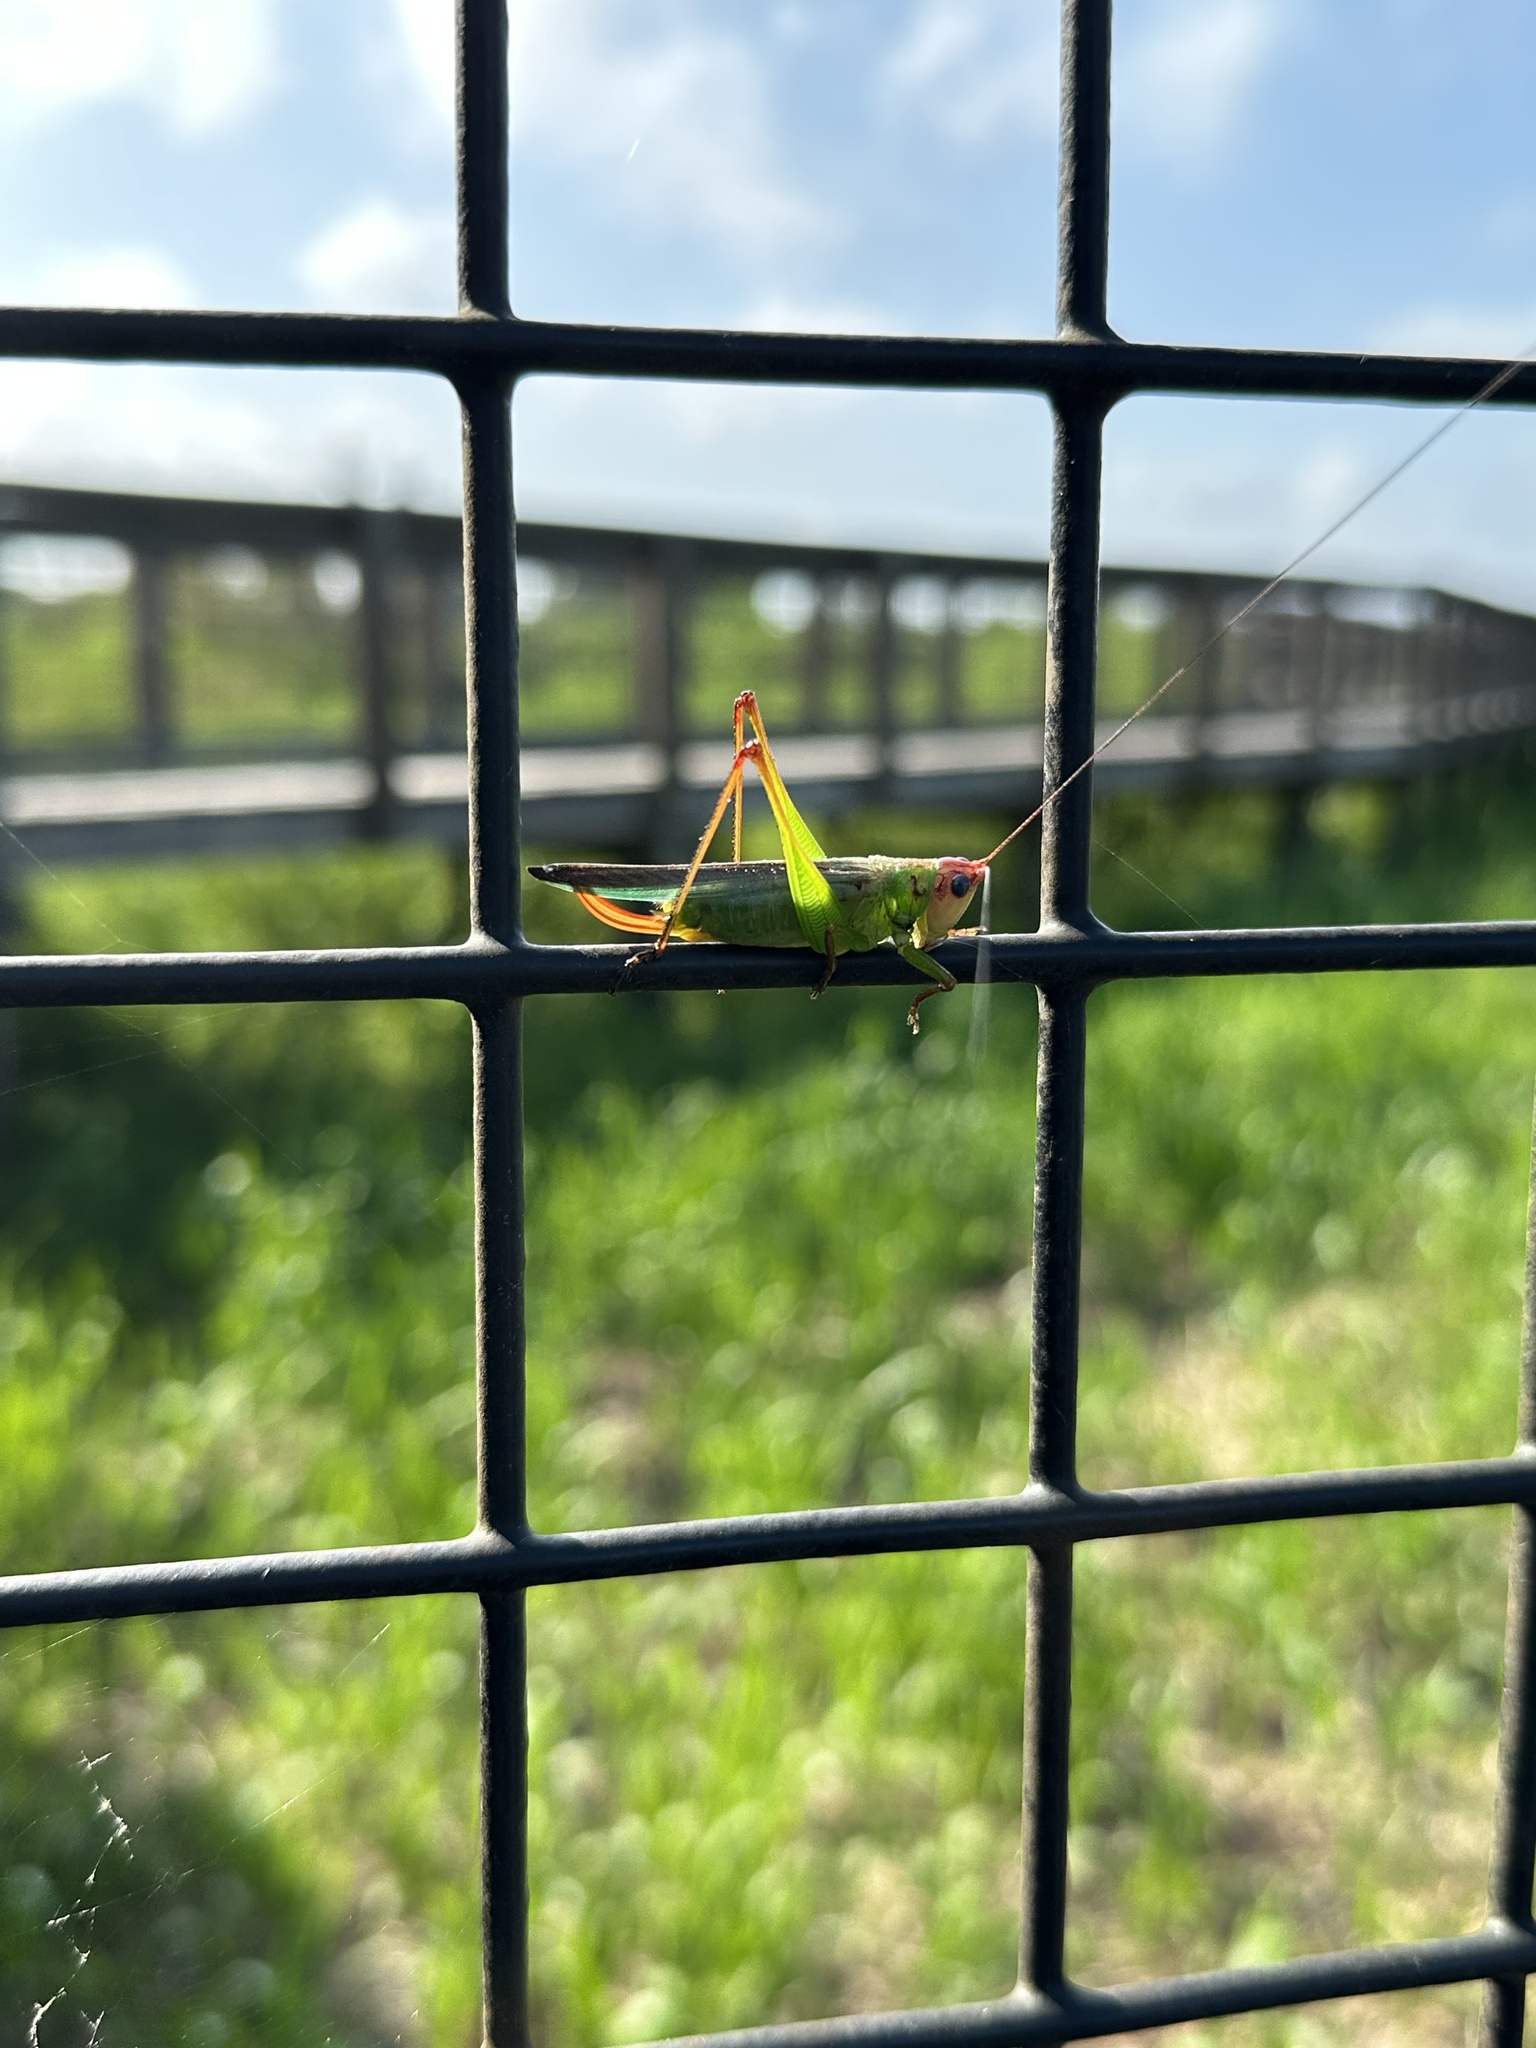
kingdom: Animalia
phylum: Arthropoda
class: Insecta
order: Orthoptera
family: Tettigoniidae
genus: Orchelimum
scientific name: Orchelimum pulchellum
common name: Handsome meadow katydid
